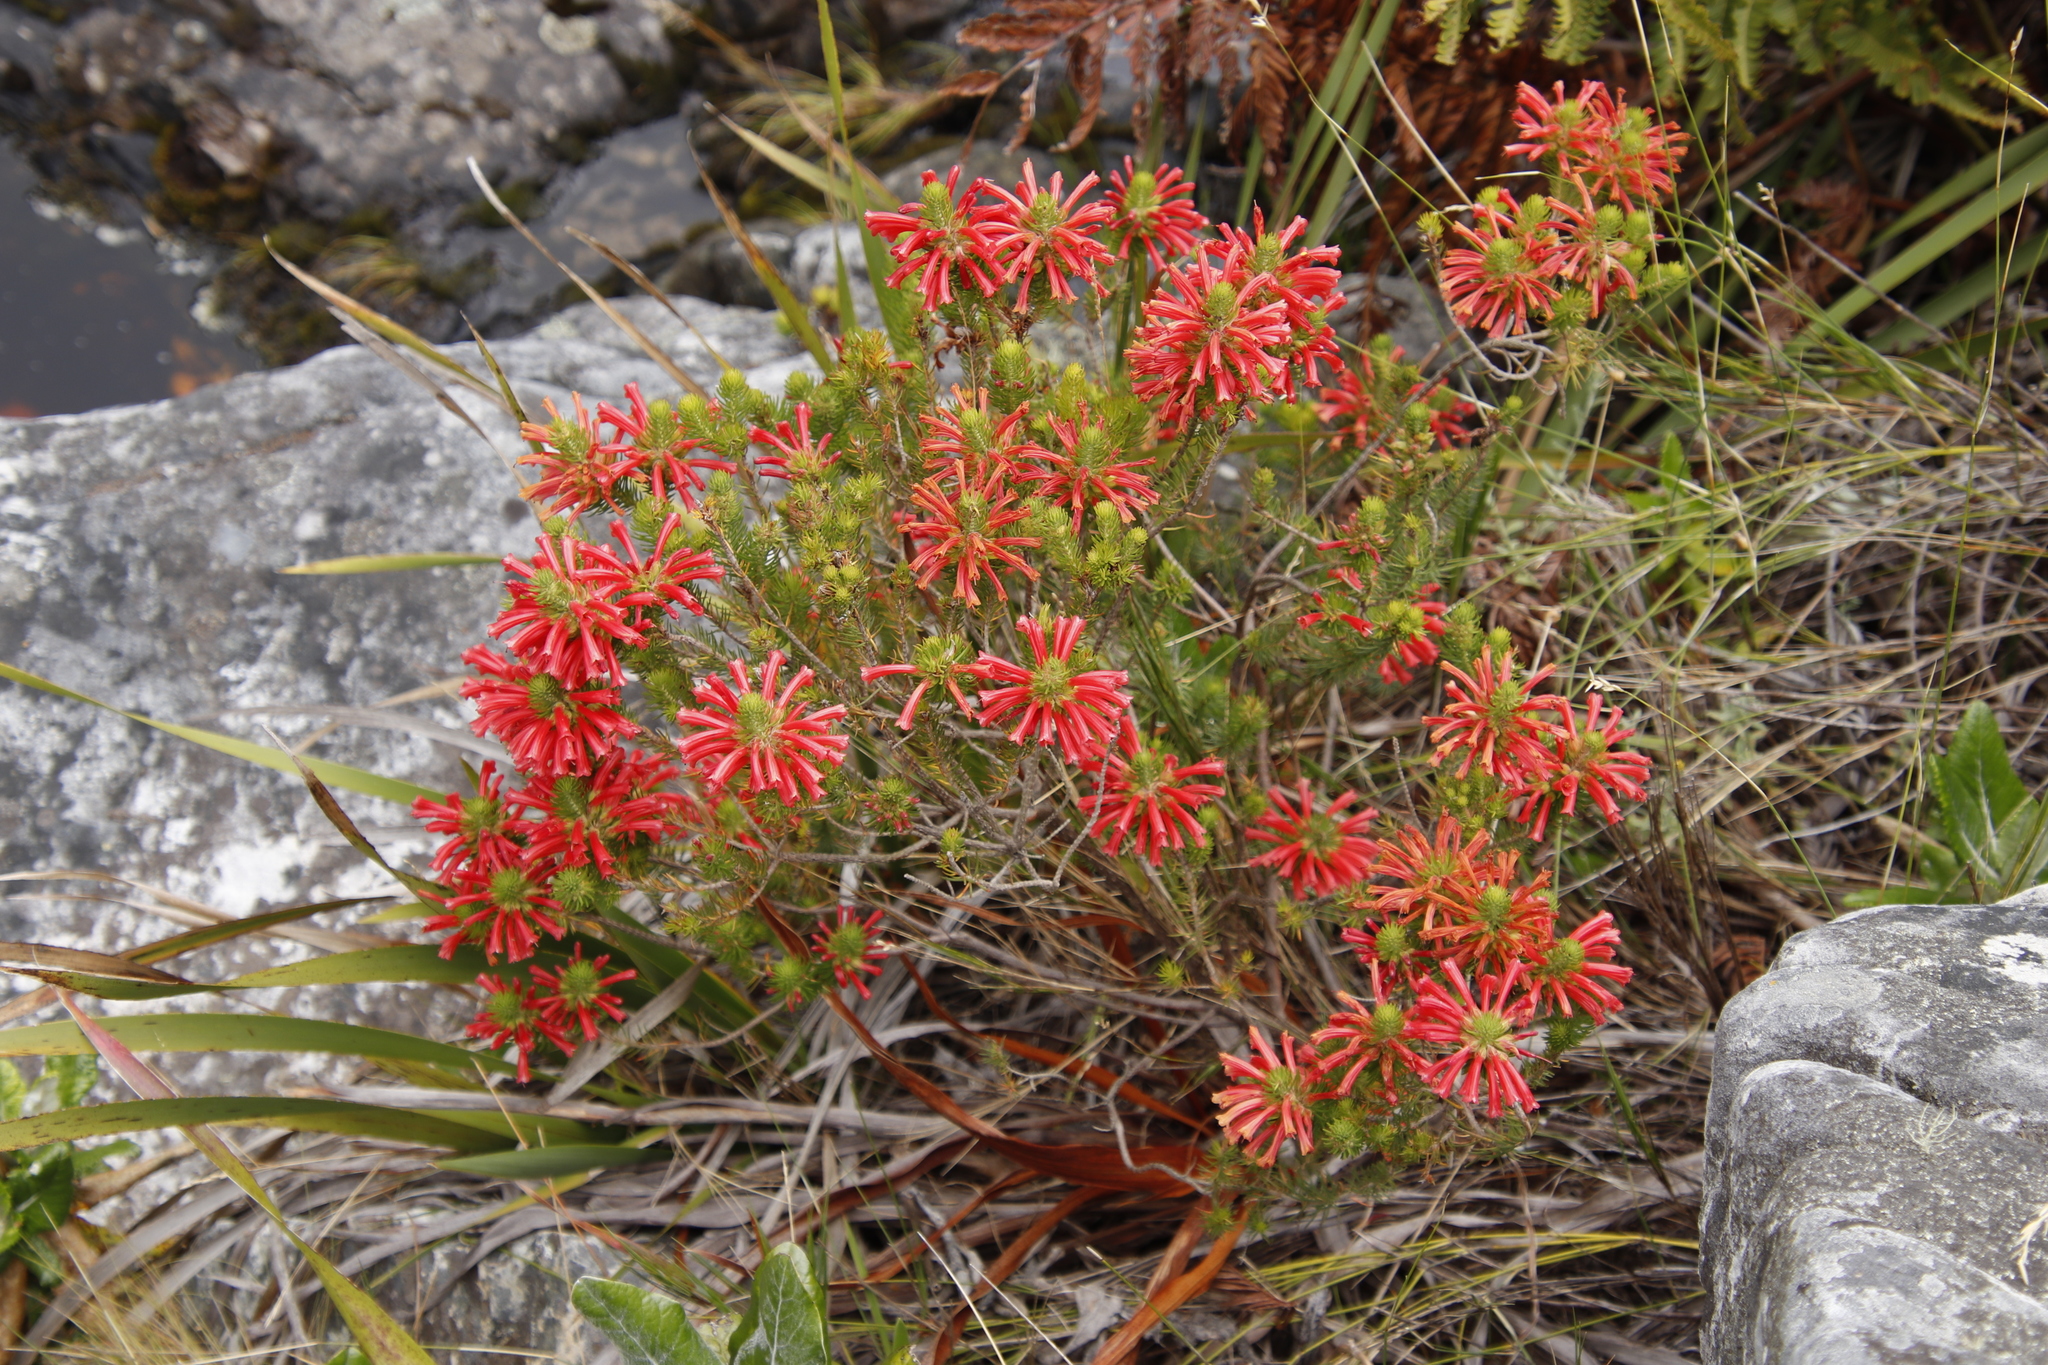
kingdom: Plantae
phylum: Tracheophyta
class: Magnoliopsida
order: Ericales
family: Ericaceae
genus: Erica
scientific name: Erica abietina
